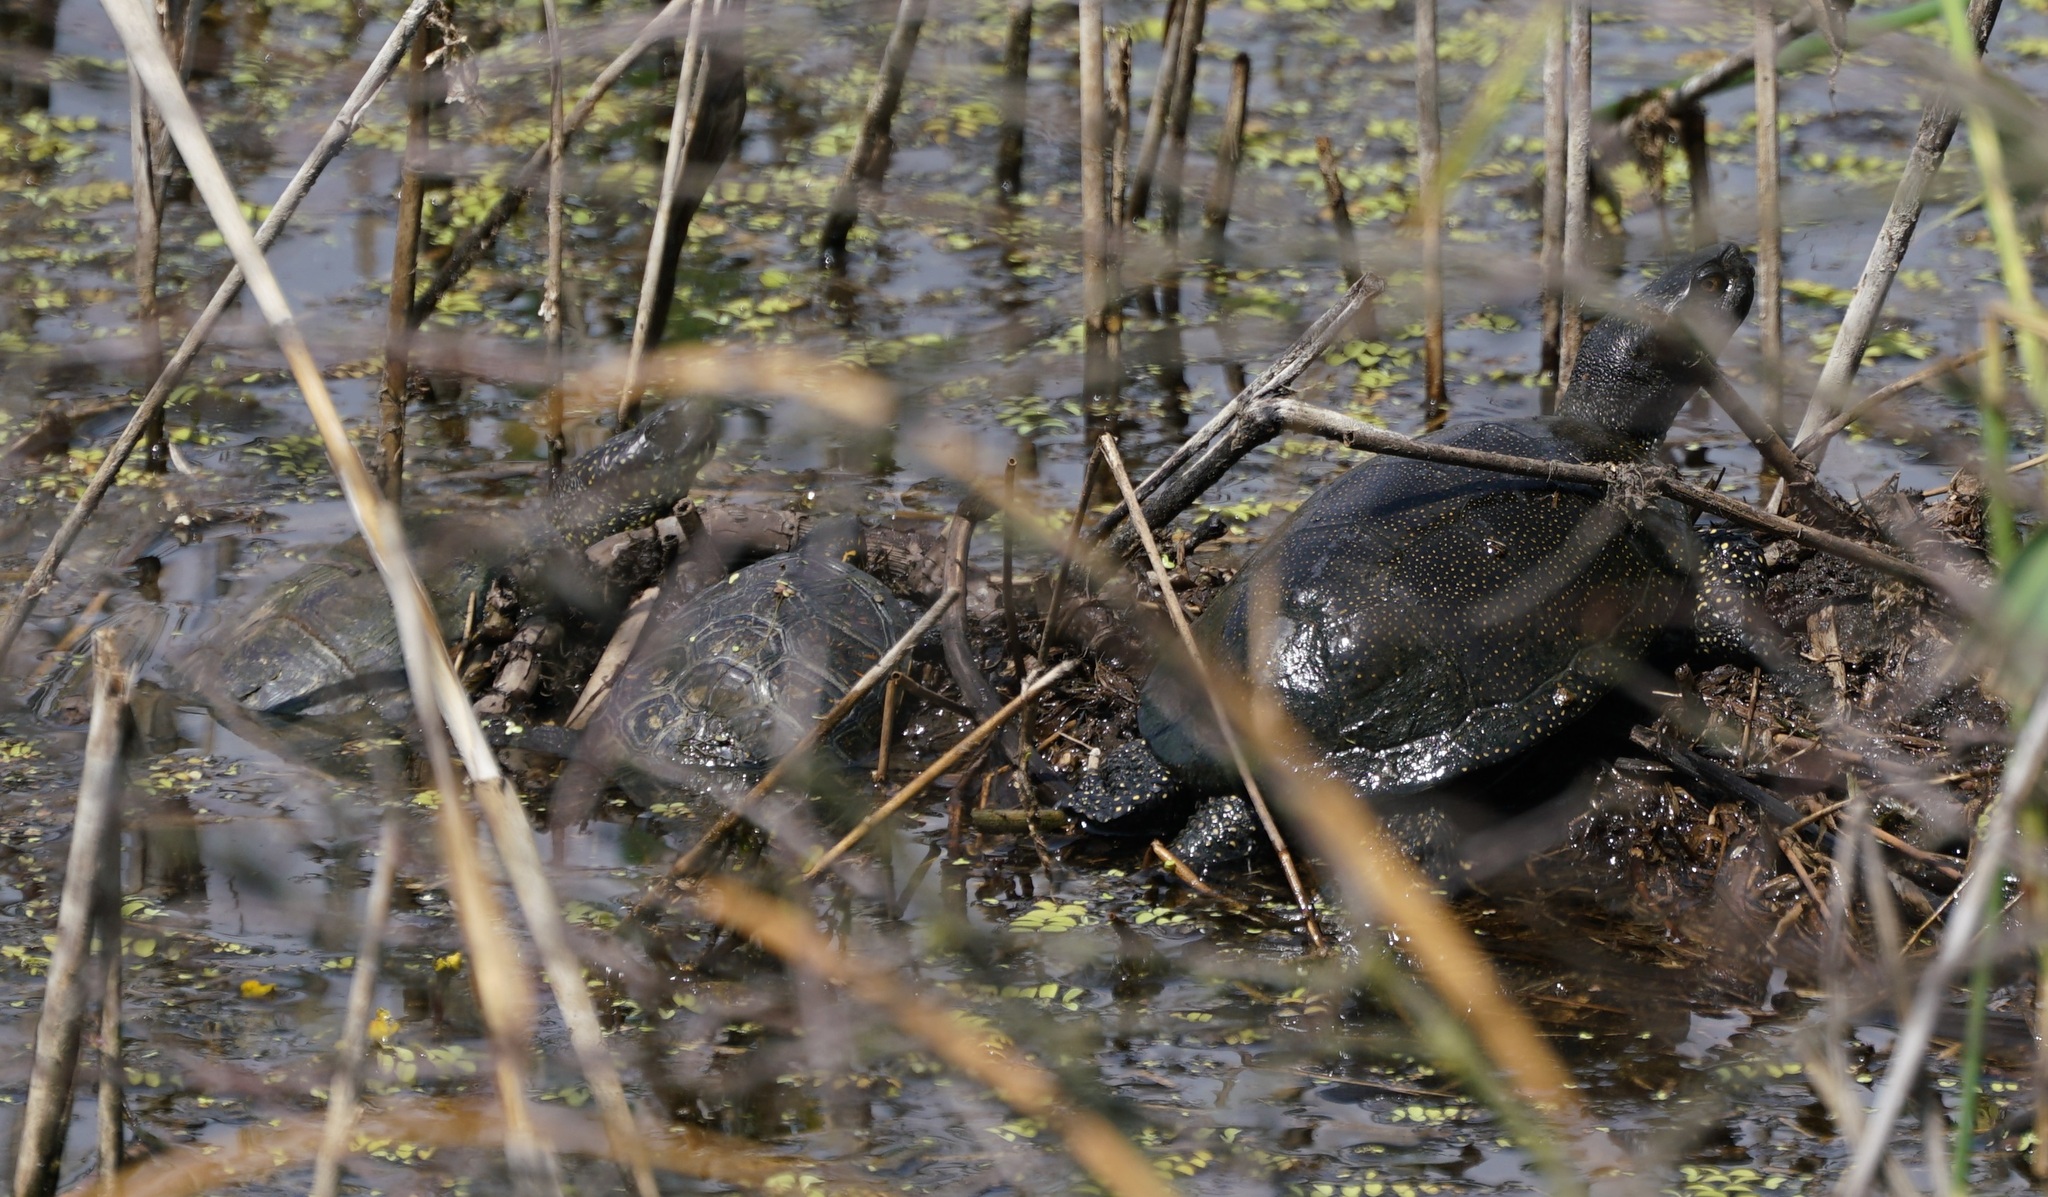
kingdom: Animalia
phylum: Chordata
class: Testudines
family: Emydidae
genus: Emys
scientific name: Emys orbicularis
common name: European pond turtle
